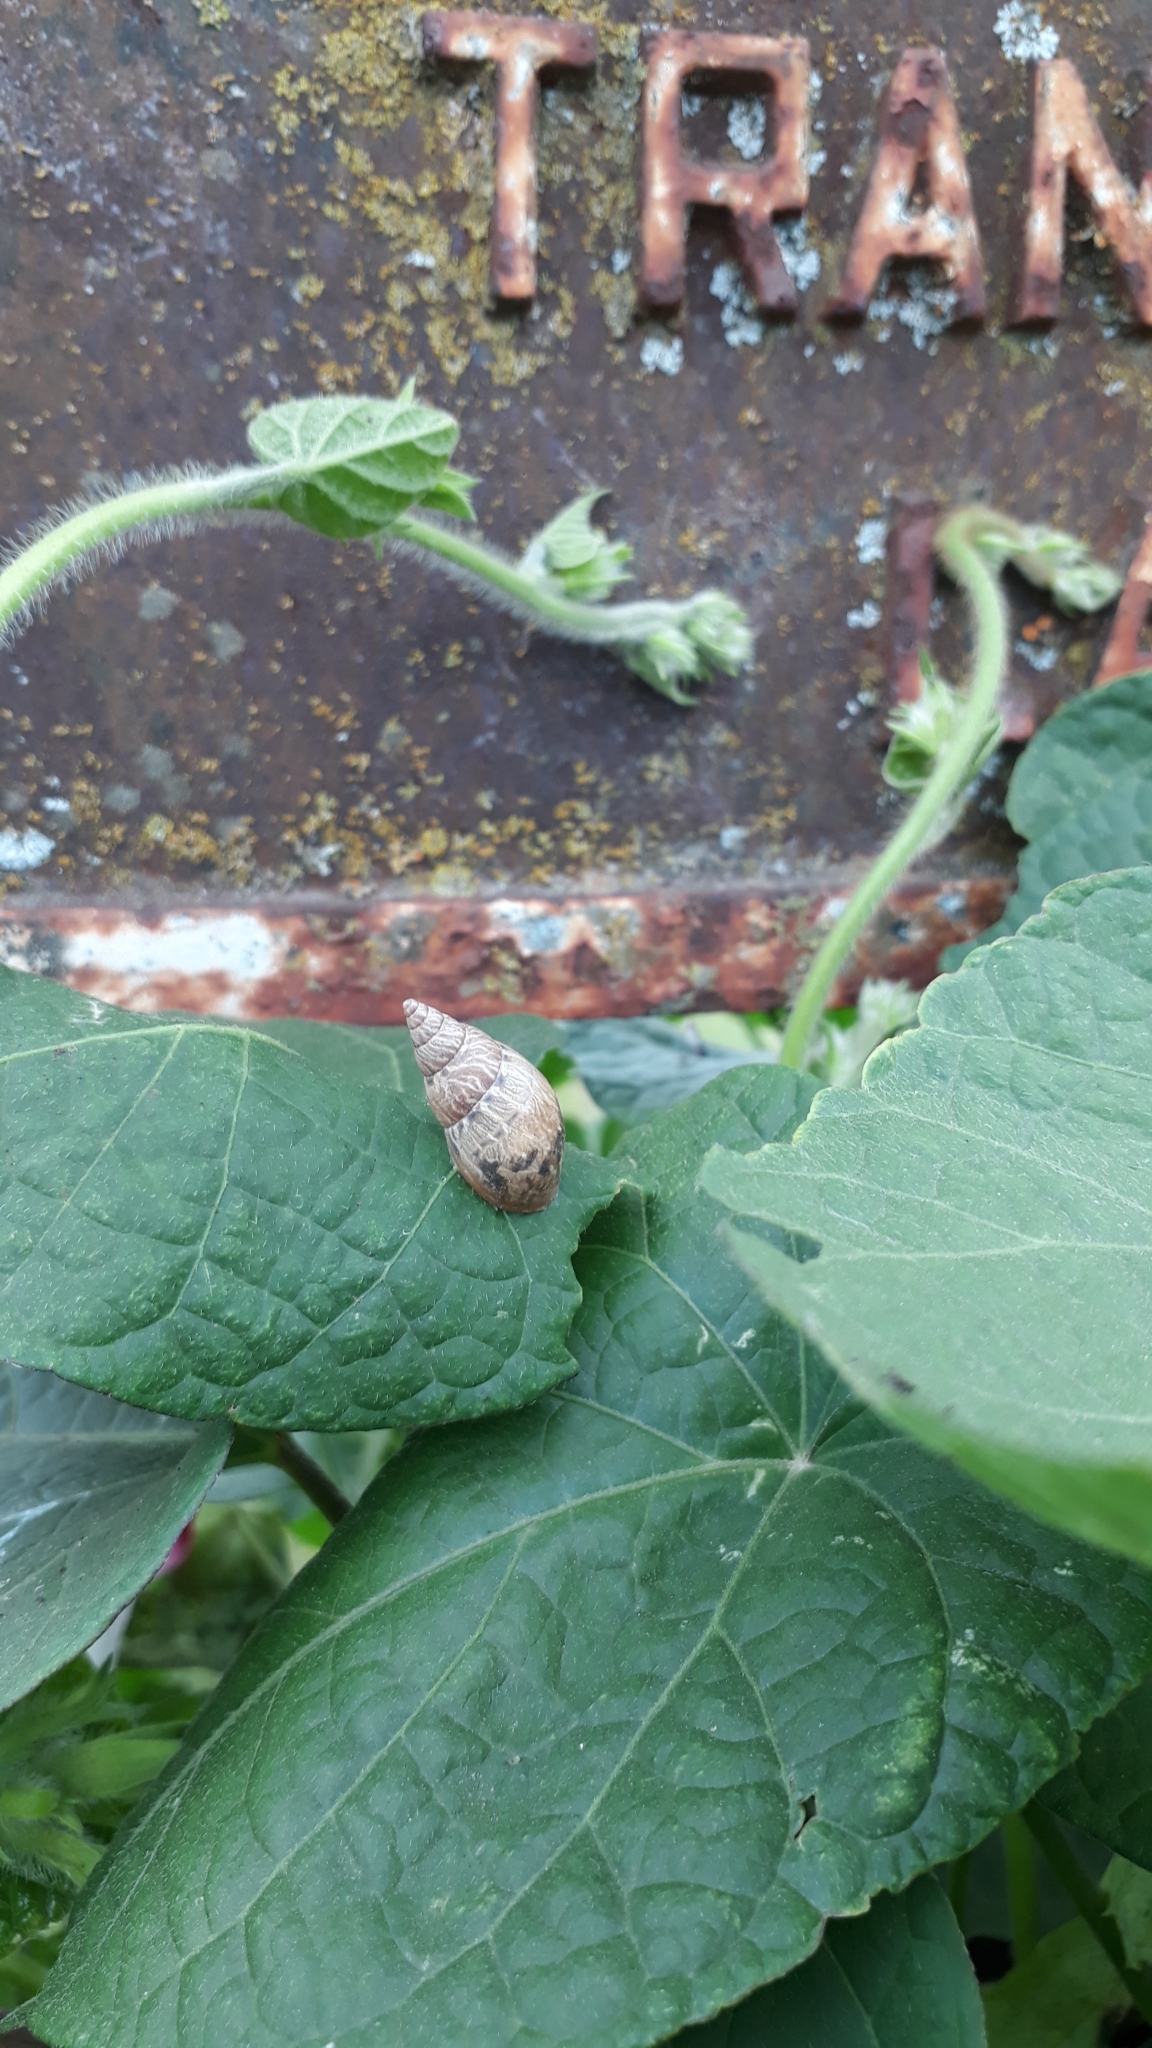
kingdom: Animalia
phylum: Mollusca
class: Gastropoda
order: Stylommatophora
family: Bulimulidae
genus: Bulimulus
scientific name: Bulimulus bonariensis
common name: Snail
